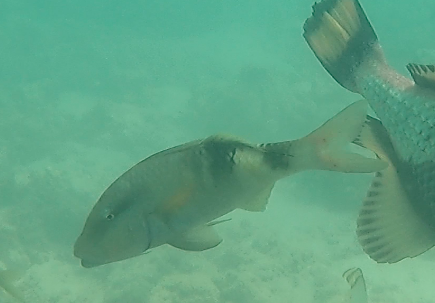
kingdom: Animalia
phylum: Chordata
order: Perciformes
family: Mullidae
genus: Parupeneus
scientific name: Parupeneus multifasciatus
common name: Manybar goatfish
